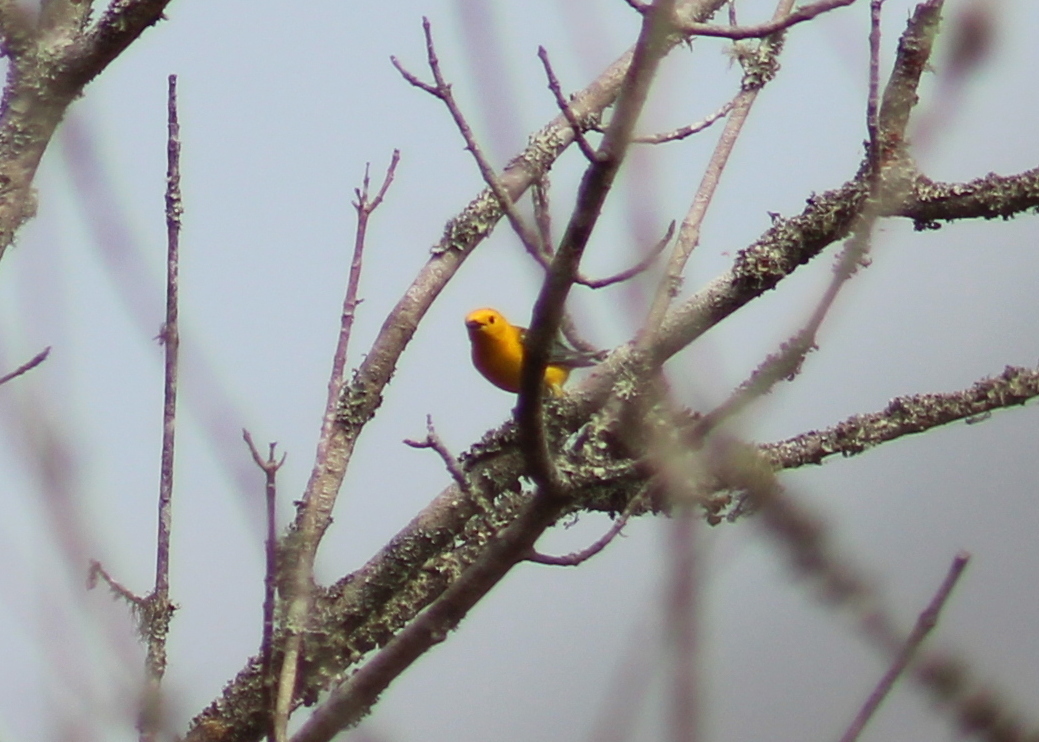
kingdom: Animalia
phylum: Chordata
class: Aves
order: Passeriformes
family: Parulidae
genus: Protonotaria
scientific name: Protonotaria citrea
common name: Prothonotary warbler
